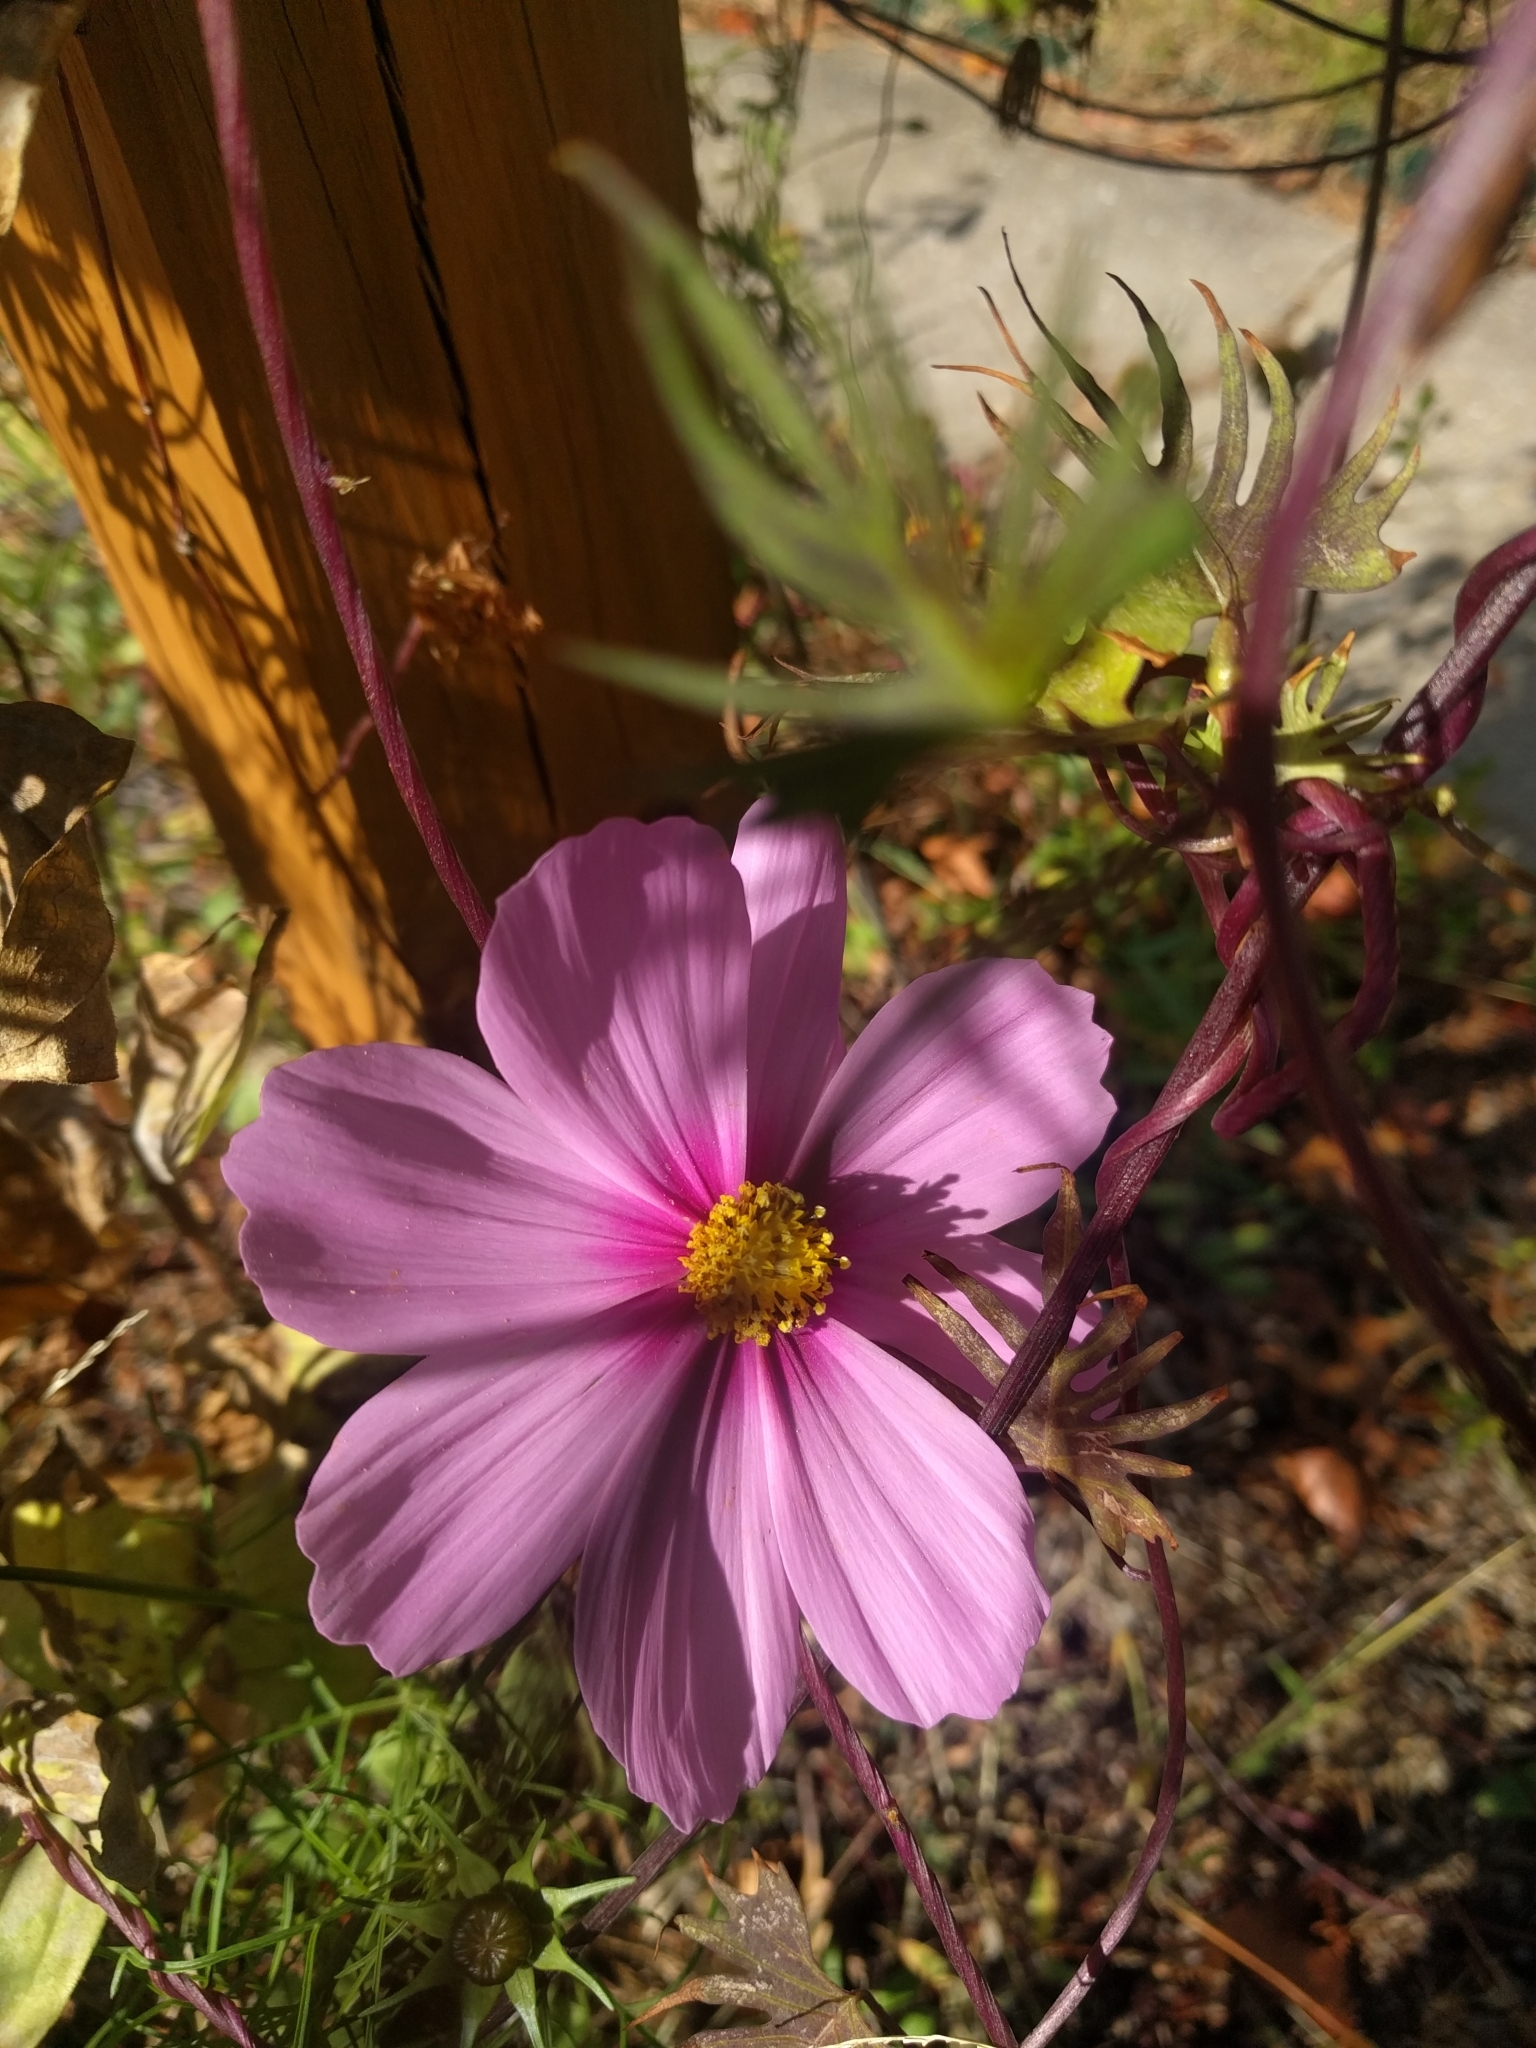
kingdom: Plantae
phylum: Tracheophyta
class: Magnoliopsida
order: Asterales
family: Asteraceae
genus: Cosmos
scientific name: Cosmos bipinnatus
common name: Garden cosmos
